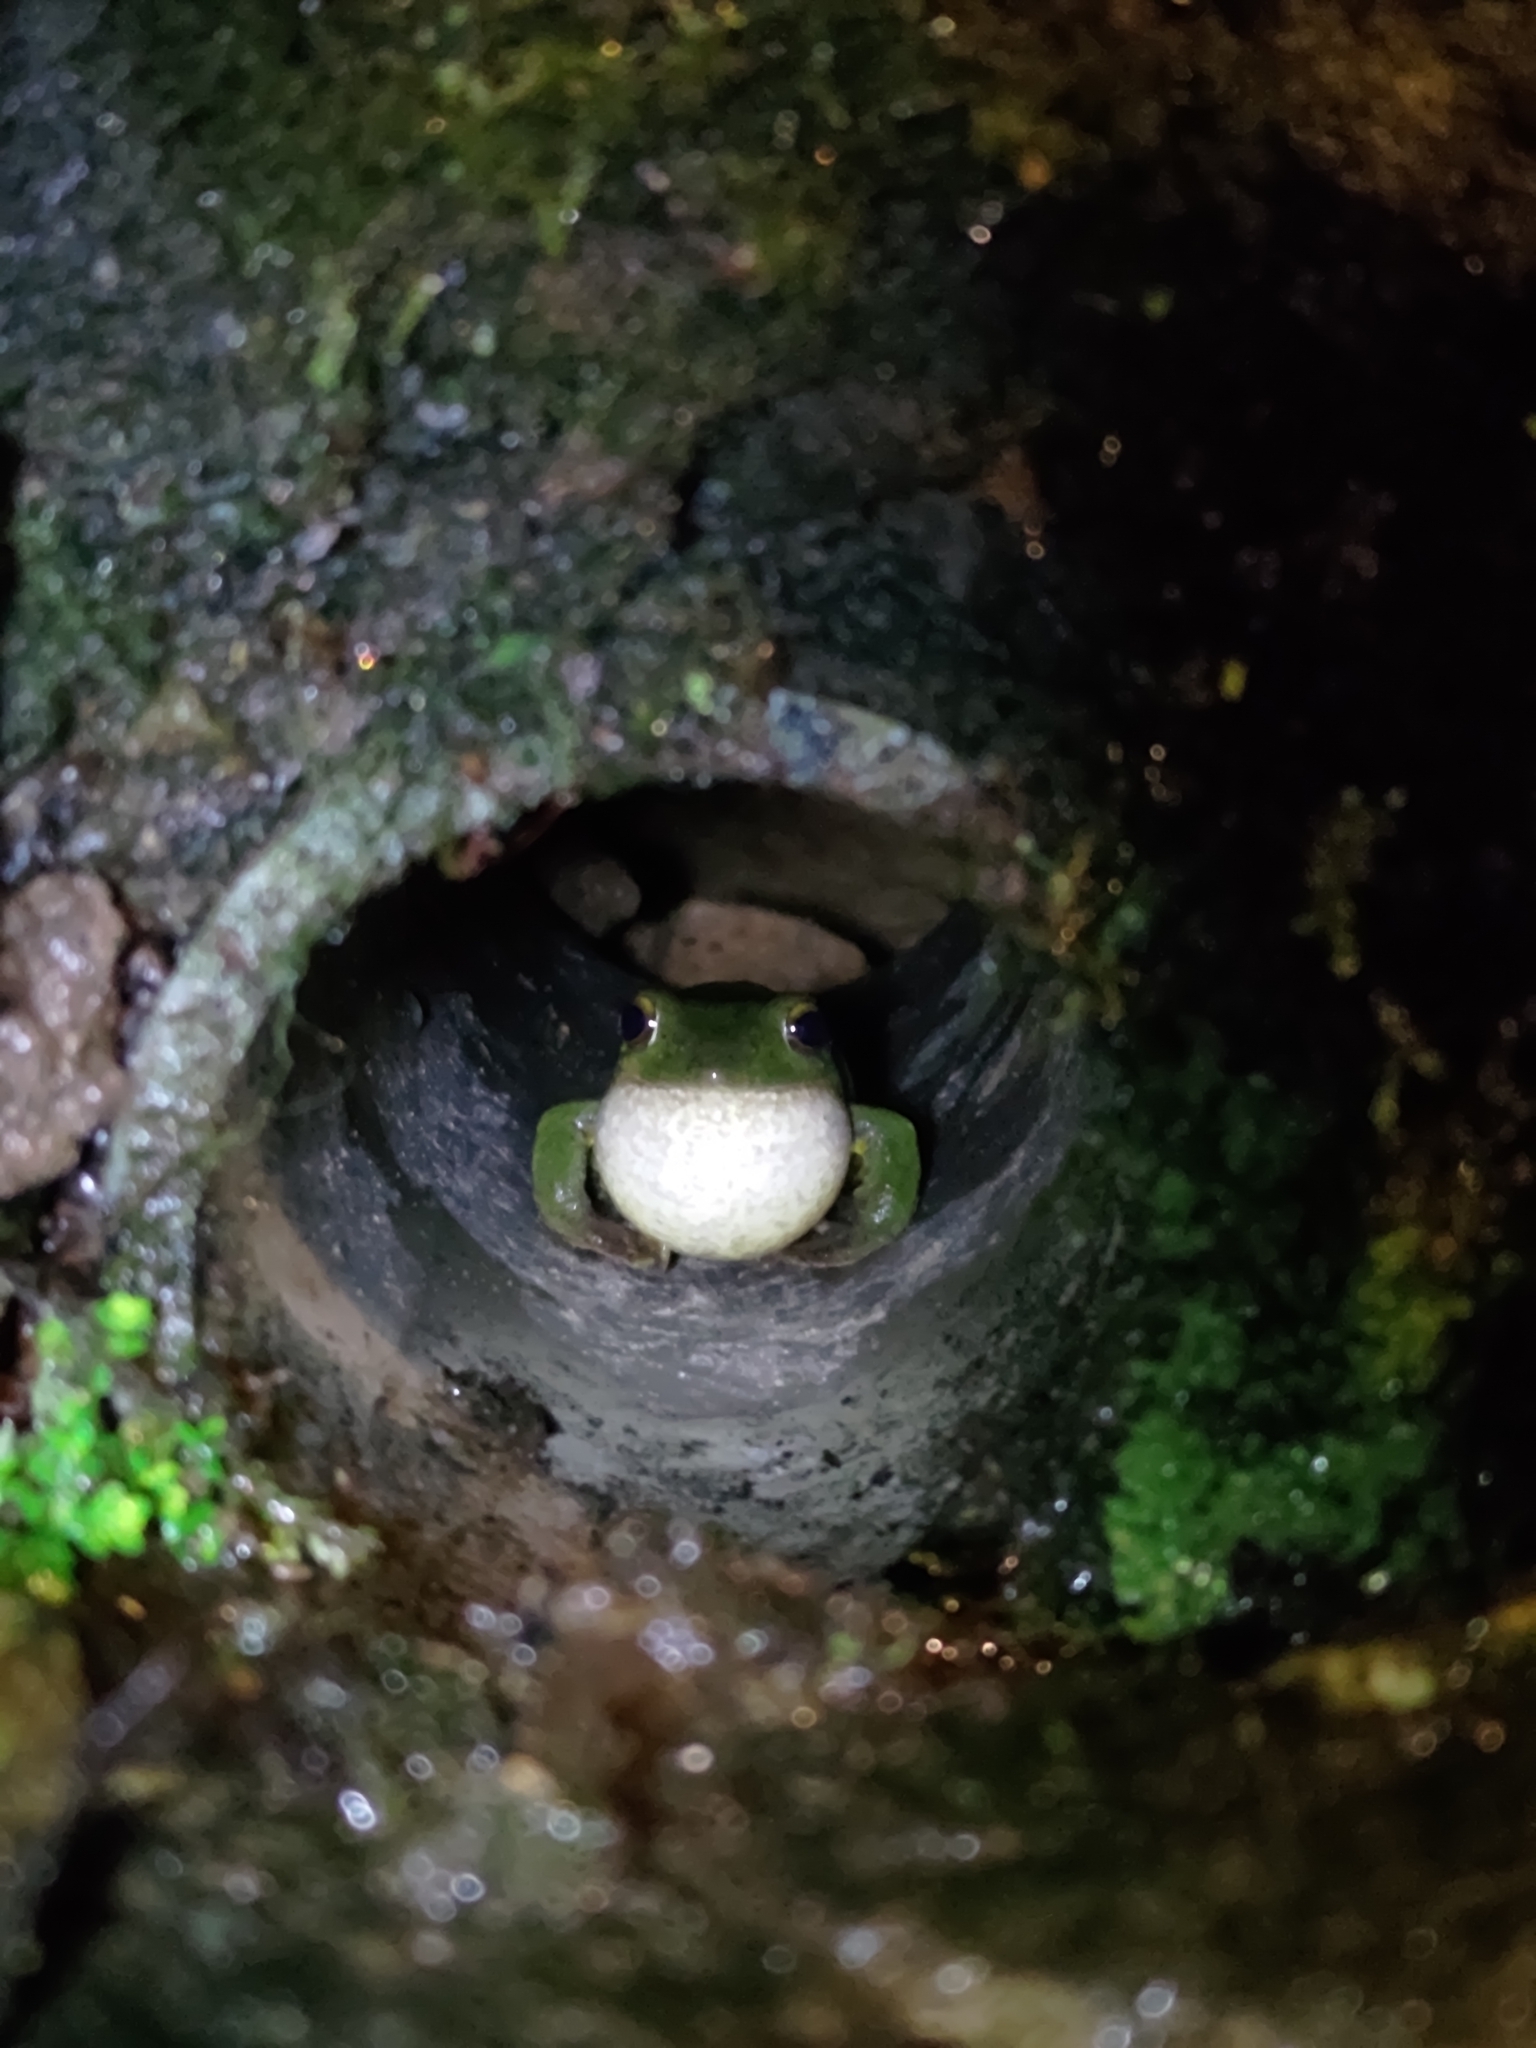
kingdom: Animalia
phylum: Chordata
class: Amphibia
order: Anura
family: Rhacophoridae
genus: Zhangixalus
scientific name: Zhangixalus taipeianus
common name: Taipei flying frog
